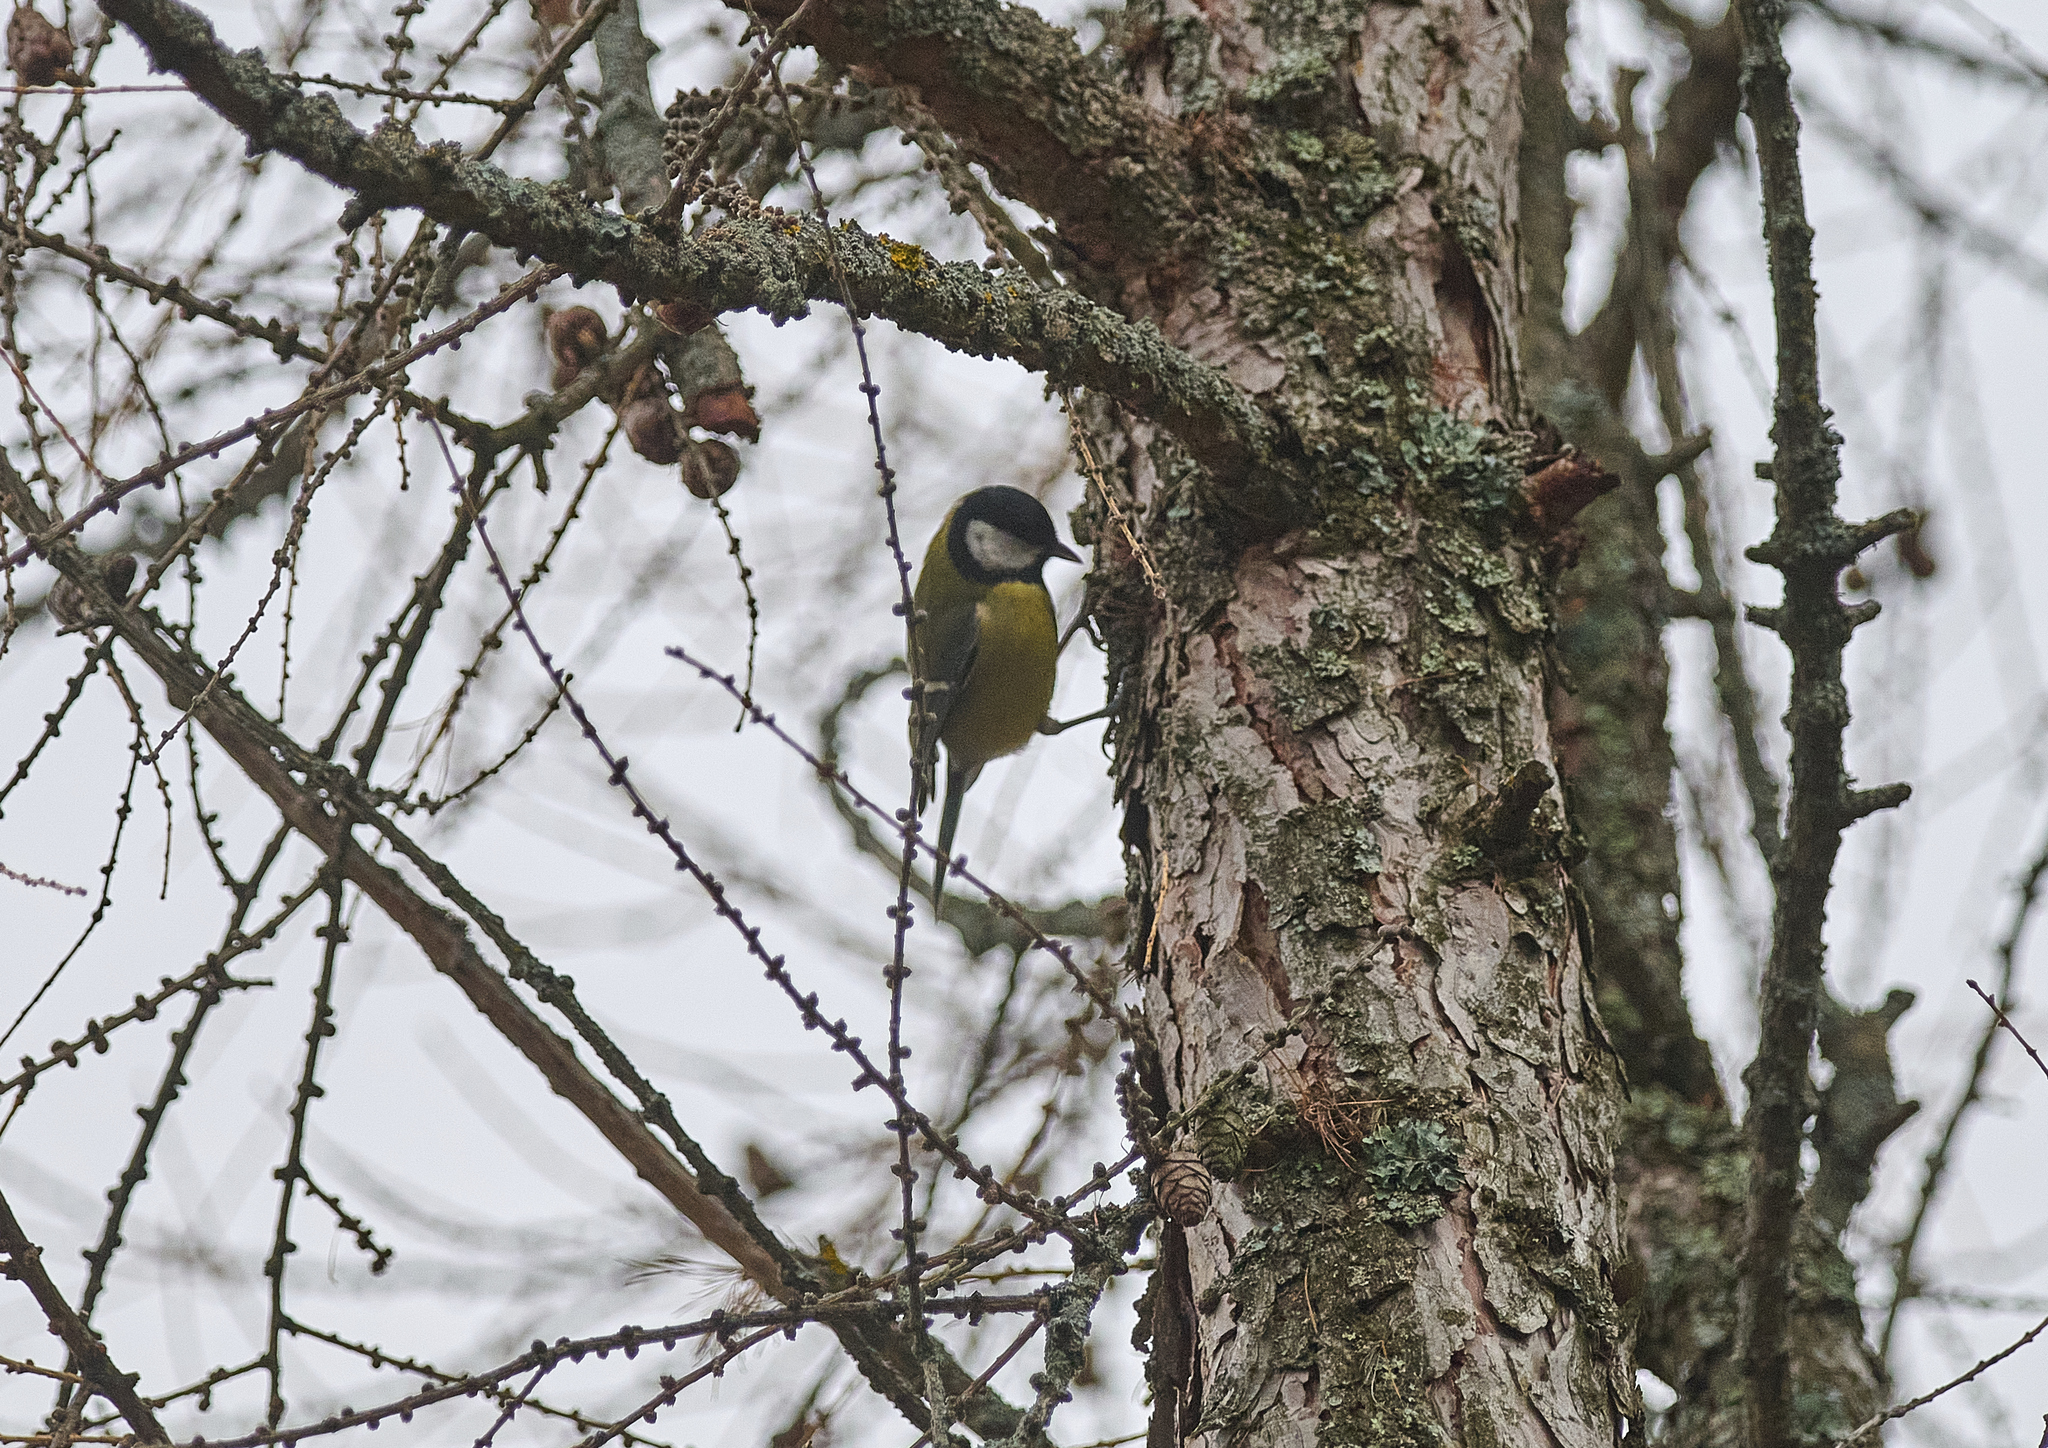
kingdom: Animalia
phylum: Chordata
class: Aves
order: Passeriformes
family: Paridae
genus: Parus
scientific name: Parus major
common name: Great tit
